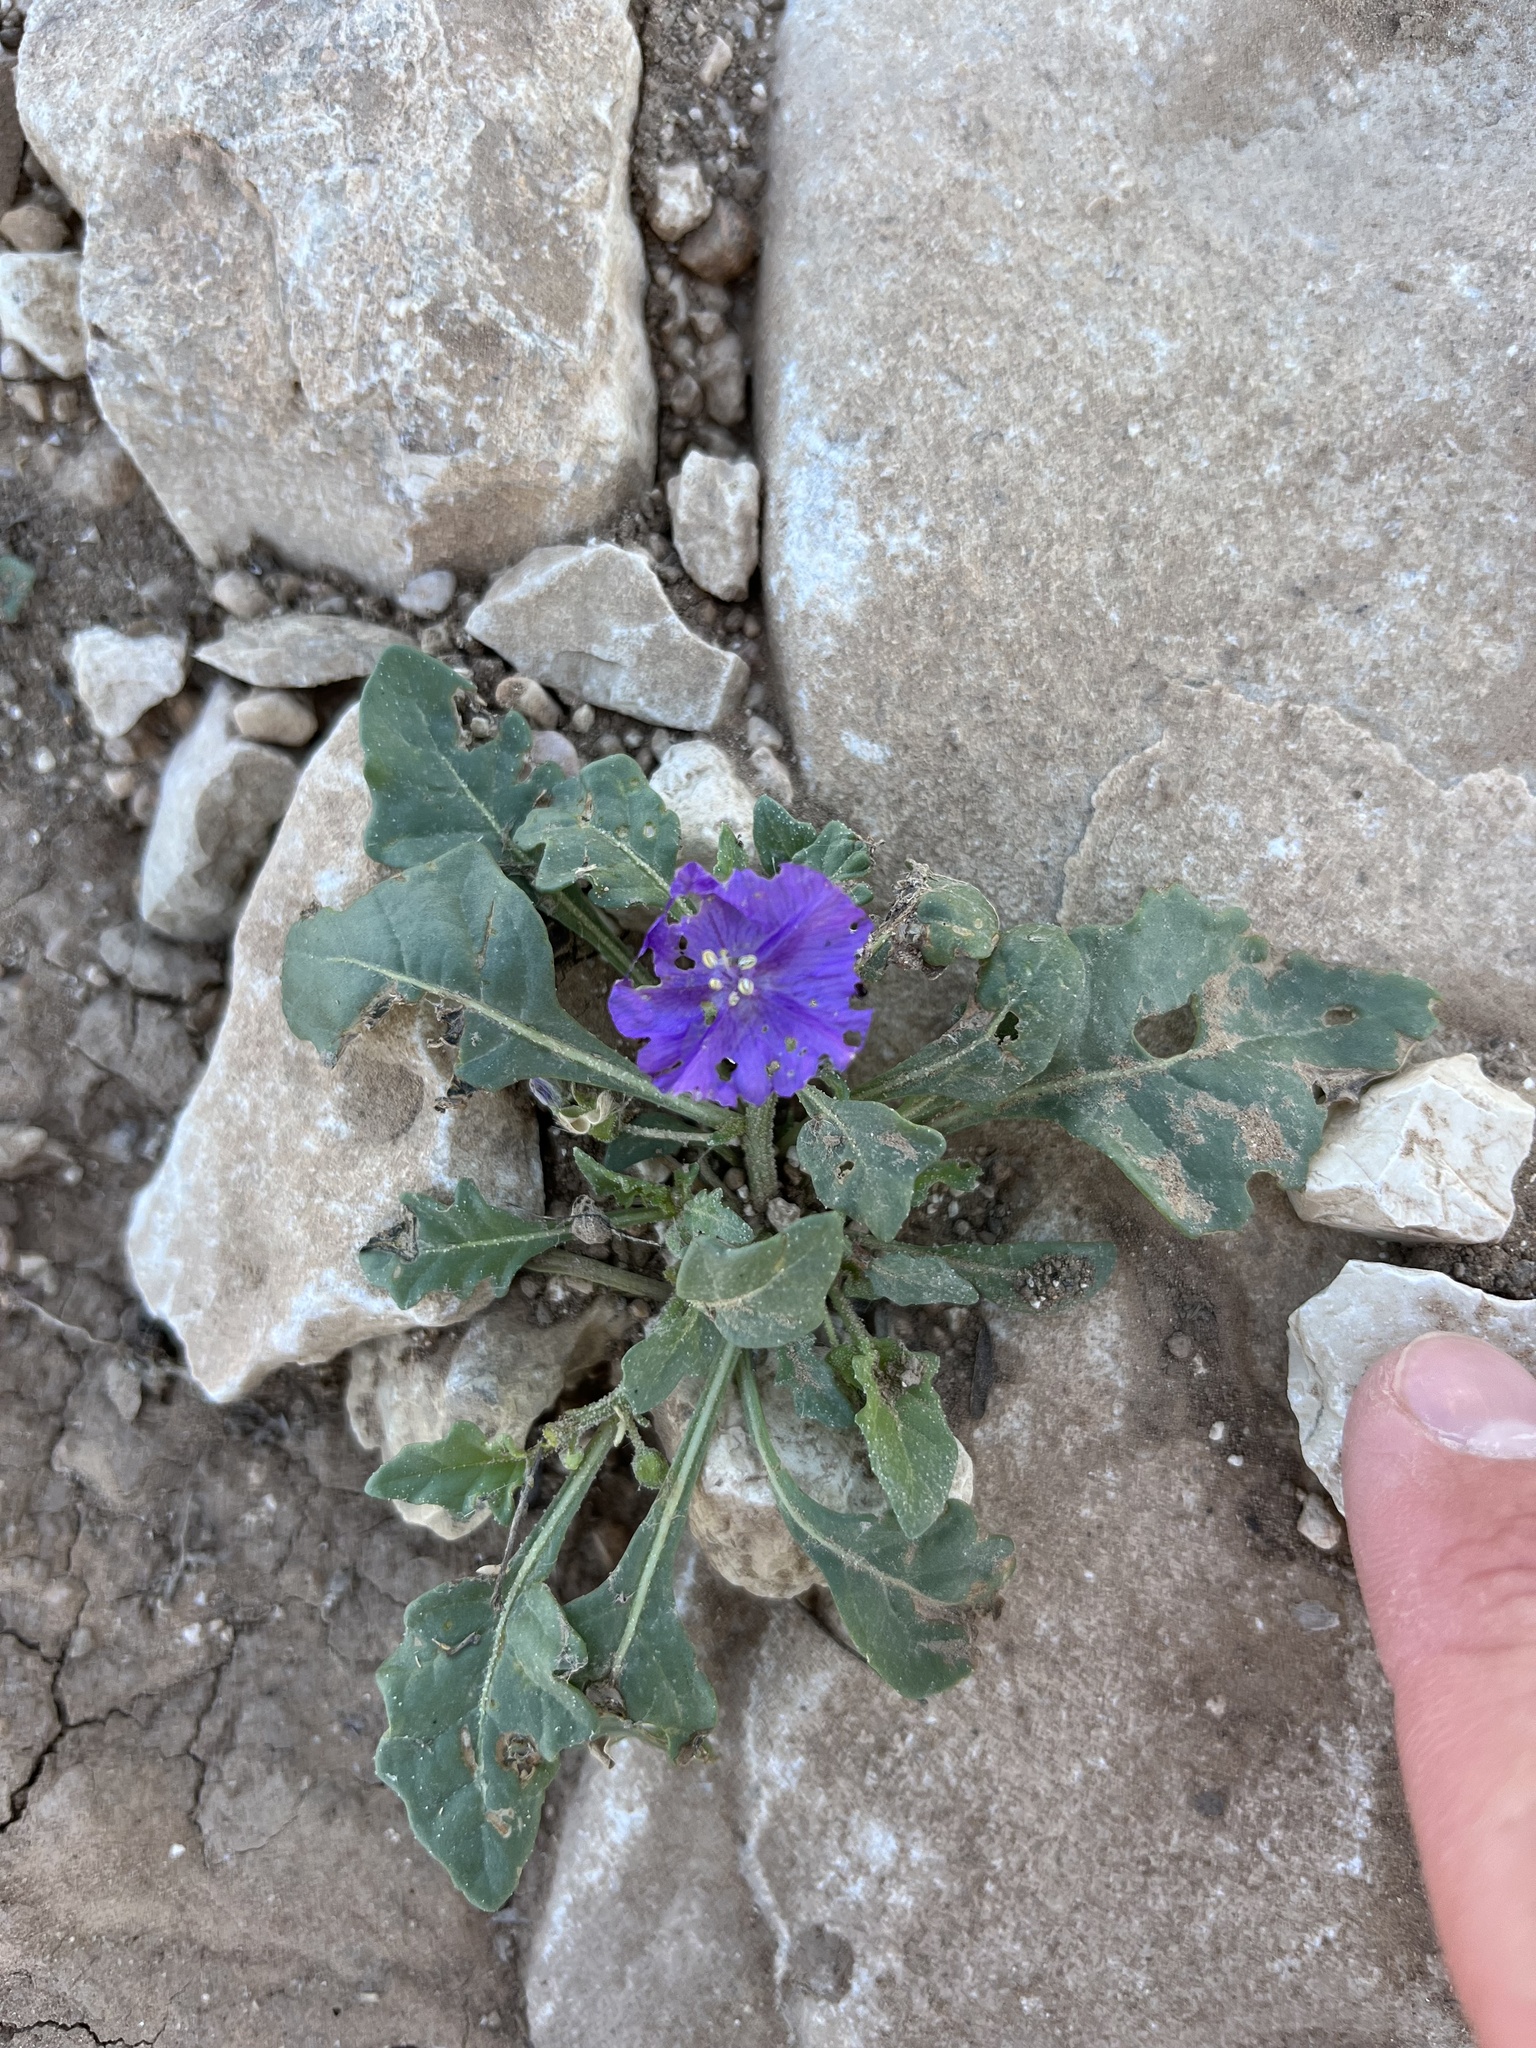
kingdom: Plantae
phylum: Tracheophyta
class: Magnoliopsida
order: Solanales
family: Solanaceae
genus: Quincula
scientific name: Quincula lobata
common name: Purple-ground-cherry
